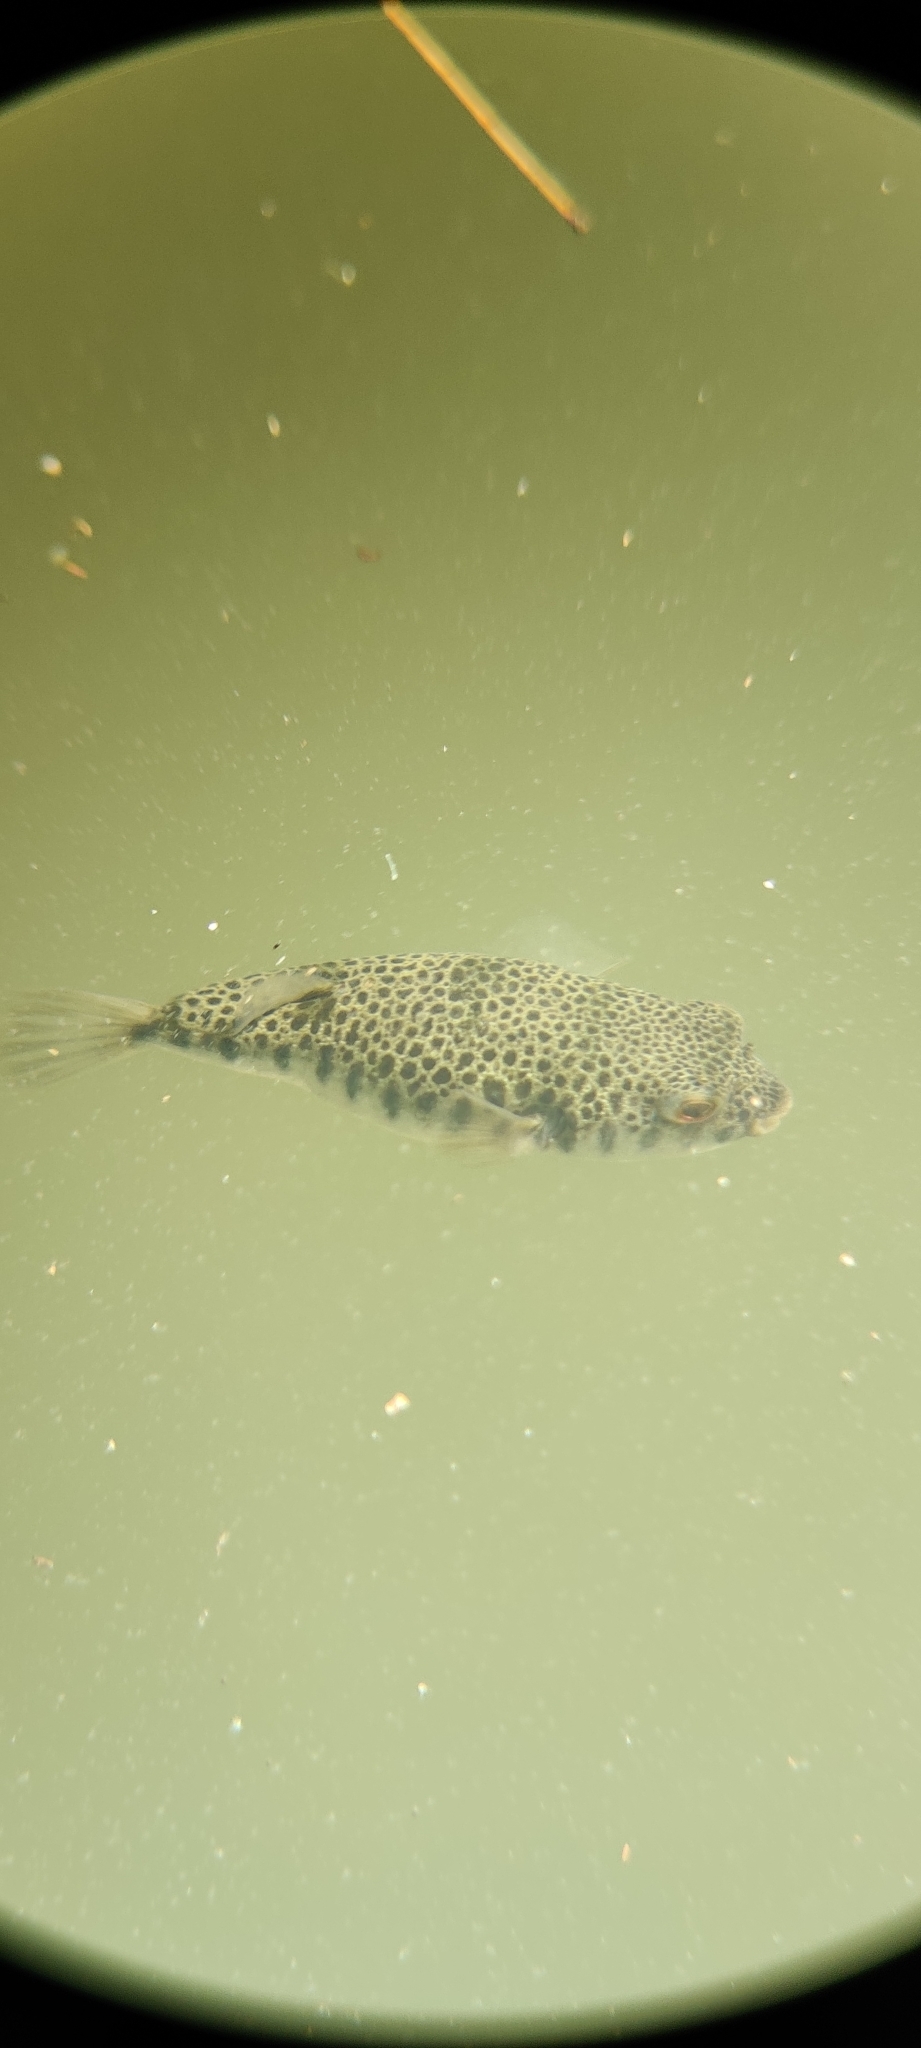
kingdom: Animalia
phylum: Chordata
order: Tetraodontiformes
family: Tetraodontidae
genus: Tetractenos
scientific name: Tetractenos hamiltoni
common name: Common toadfish
